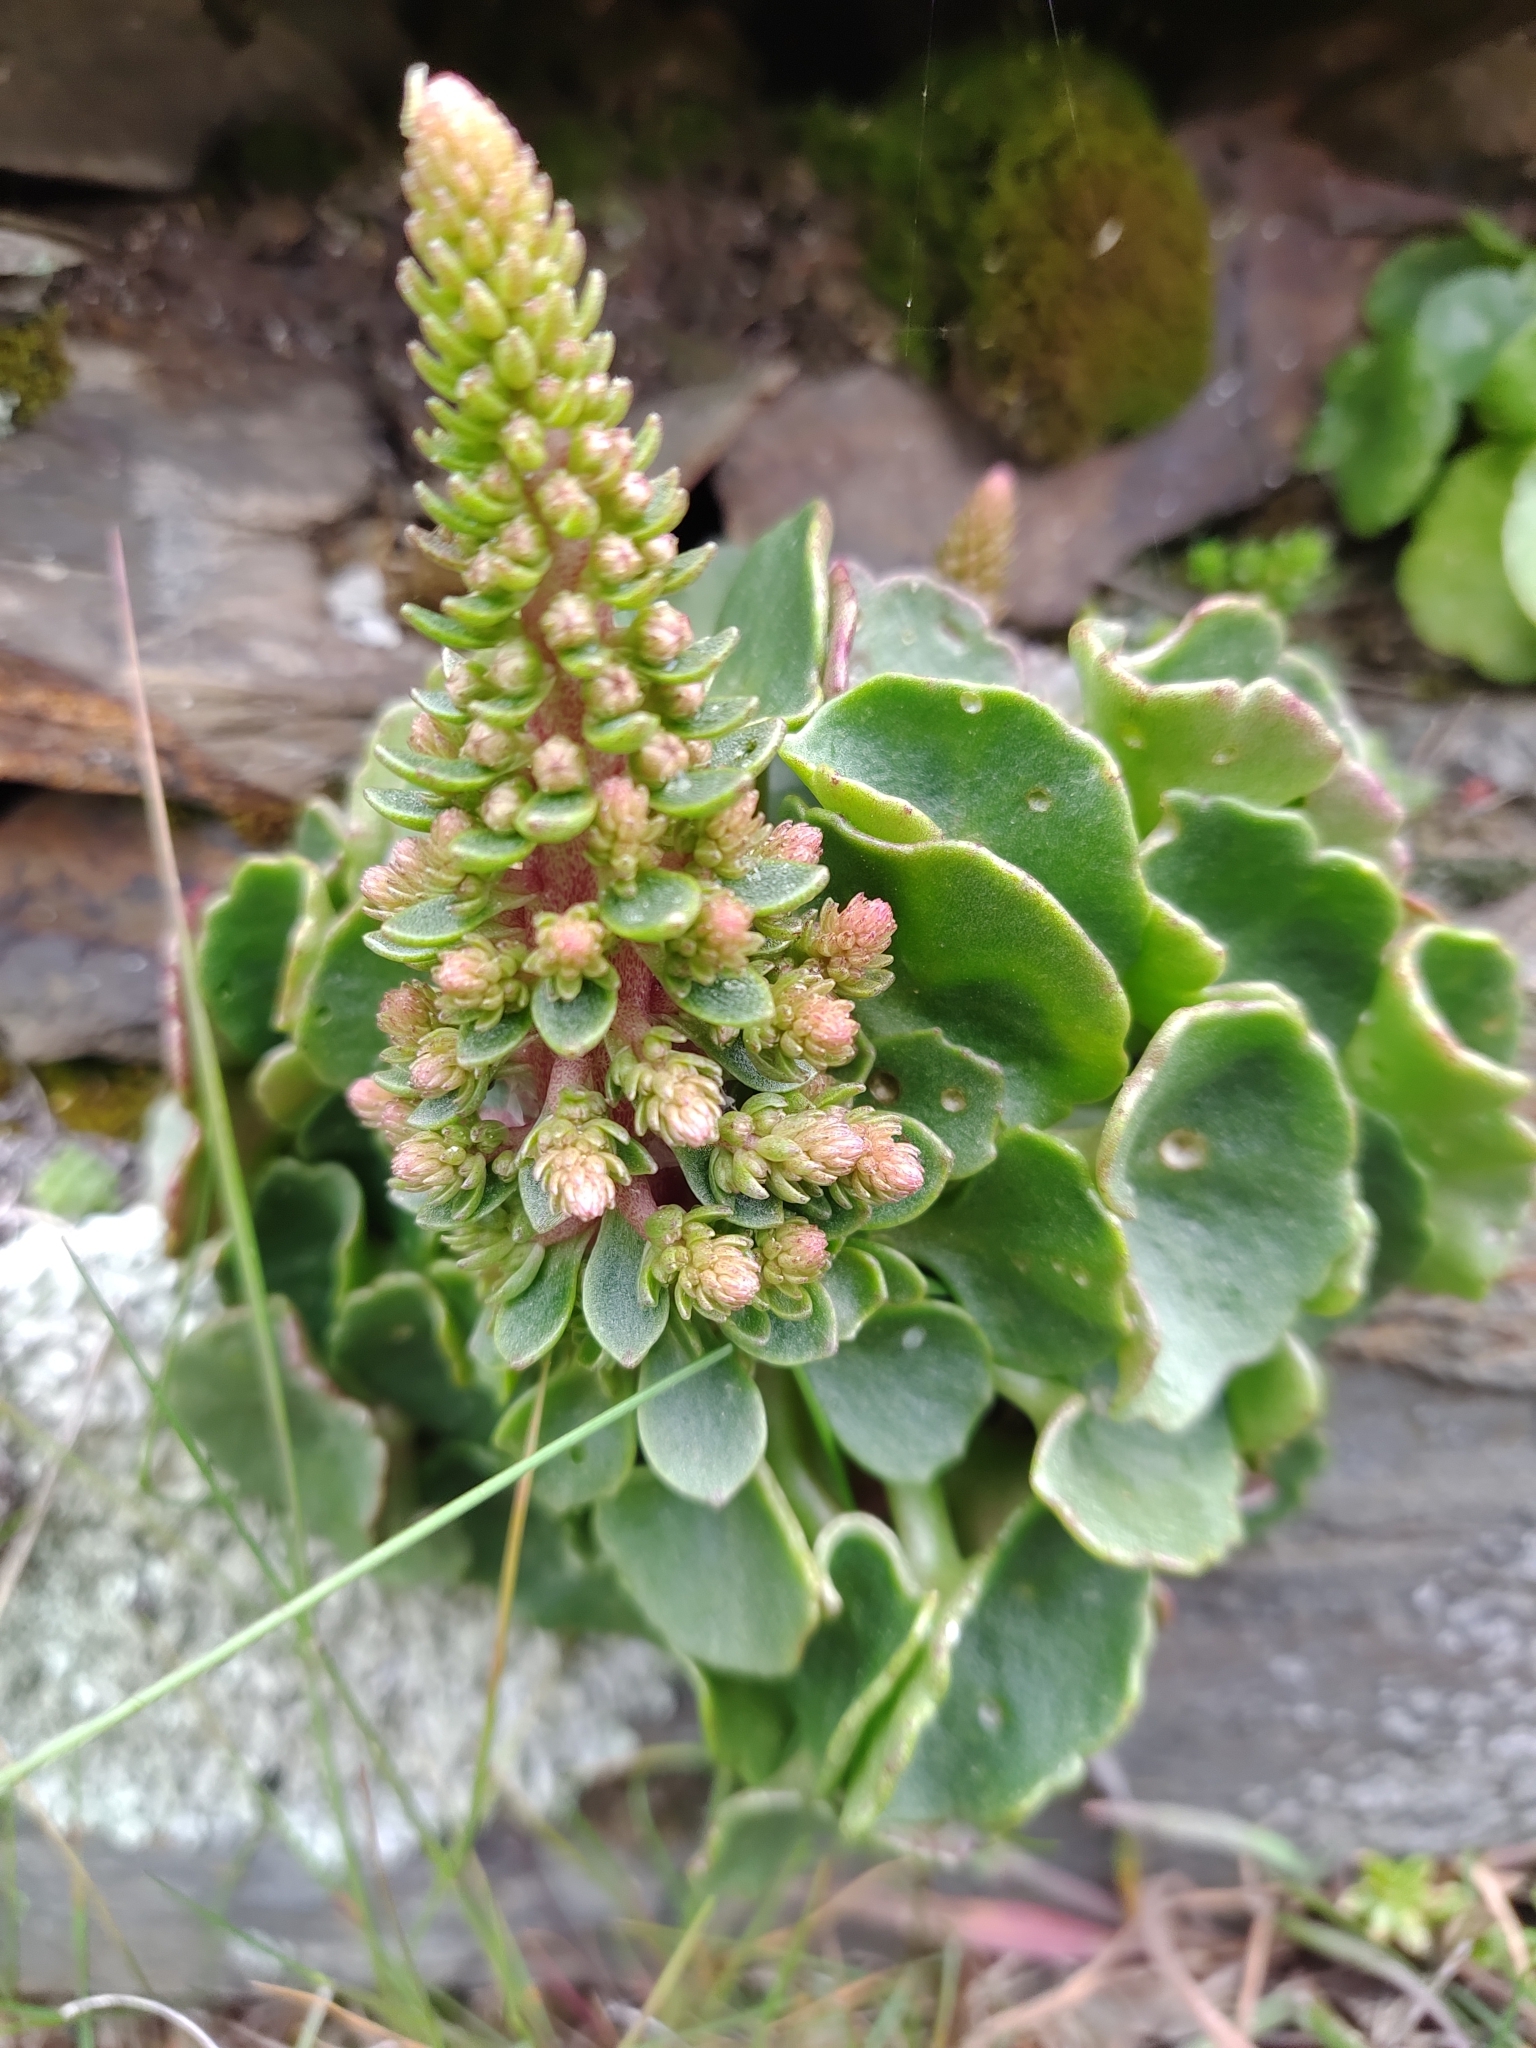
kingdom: Plantae
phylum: Tracheophyta
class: Magnoliopsida
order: Saxifragales
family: Crassulaceae
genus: Umbilicus
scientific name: Umbilicus rupestris
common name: Navelwort
